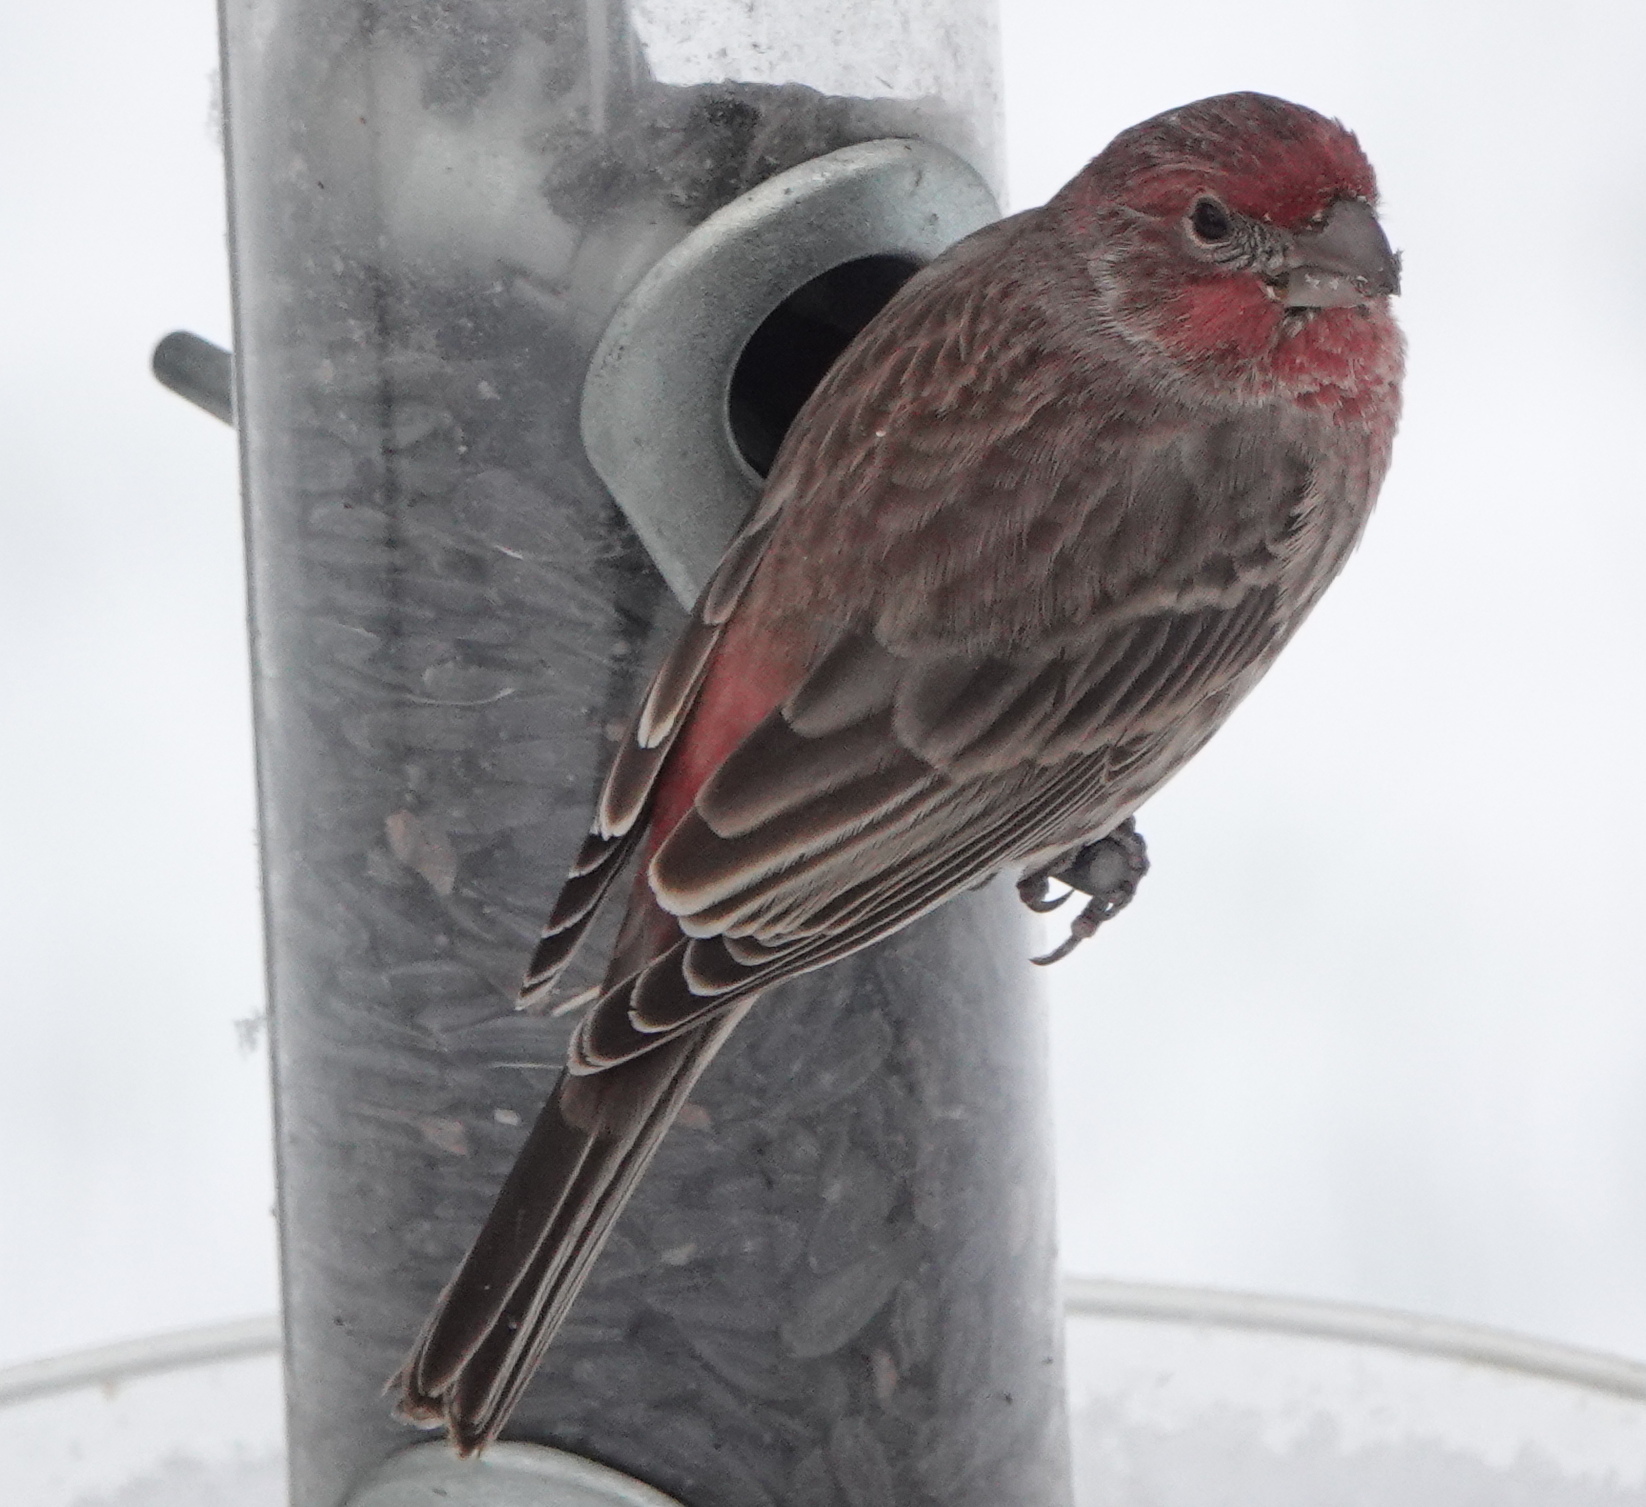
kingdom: Animalia
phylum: Chordata
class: Aves
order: Passeriformes
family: Fringillidae
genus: Haemorhous
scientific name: Haemorhous mexicanus
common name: House finch
